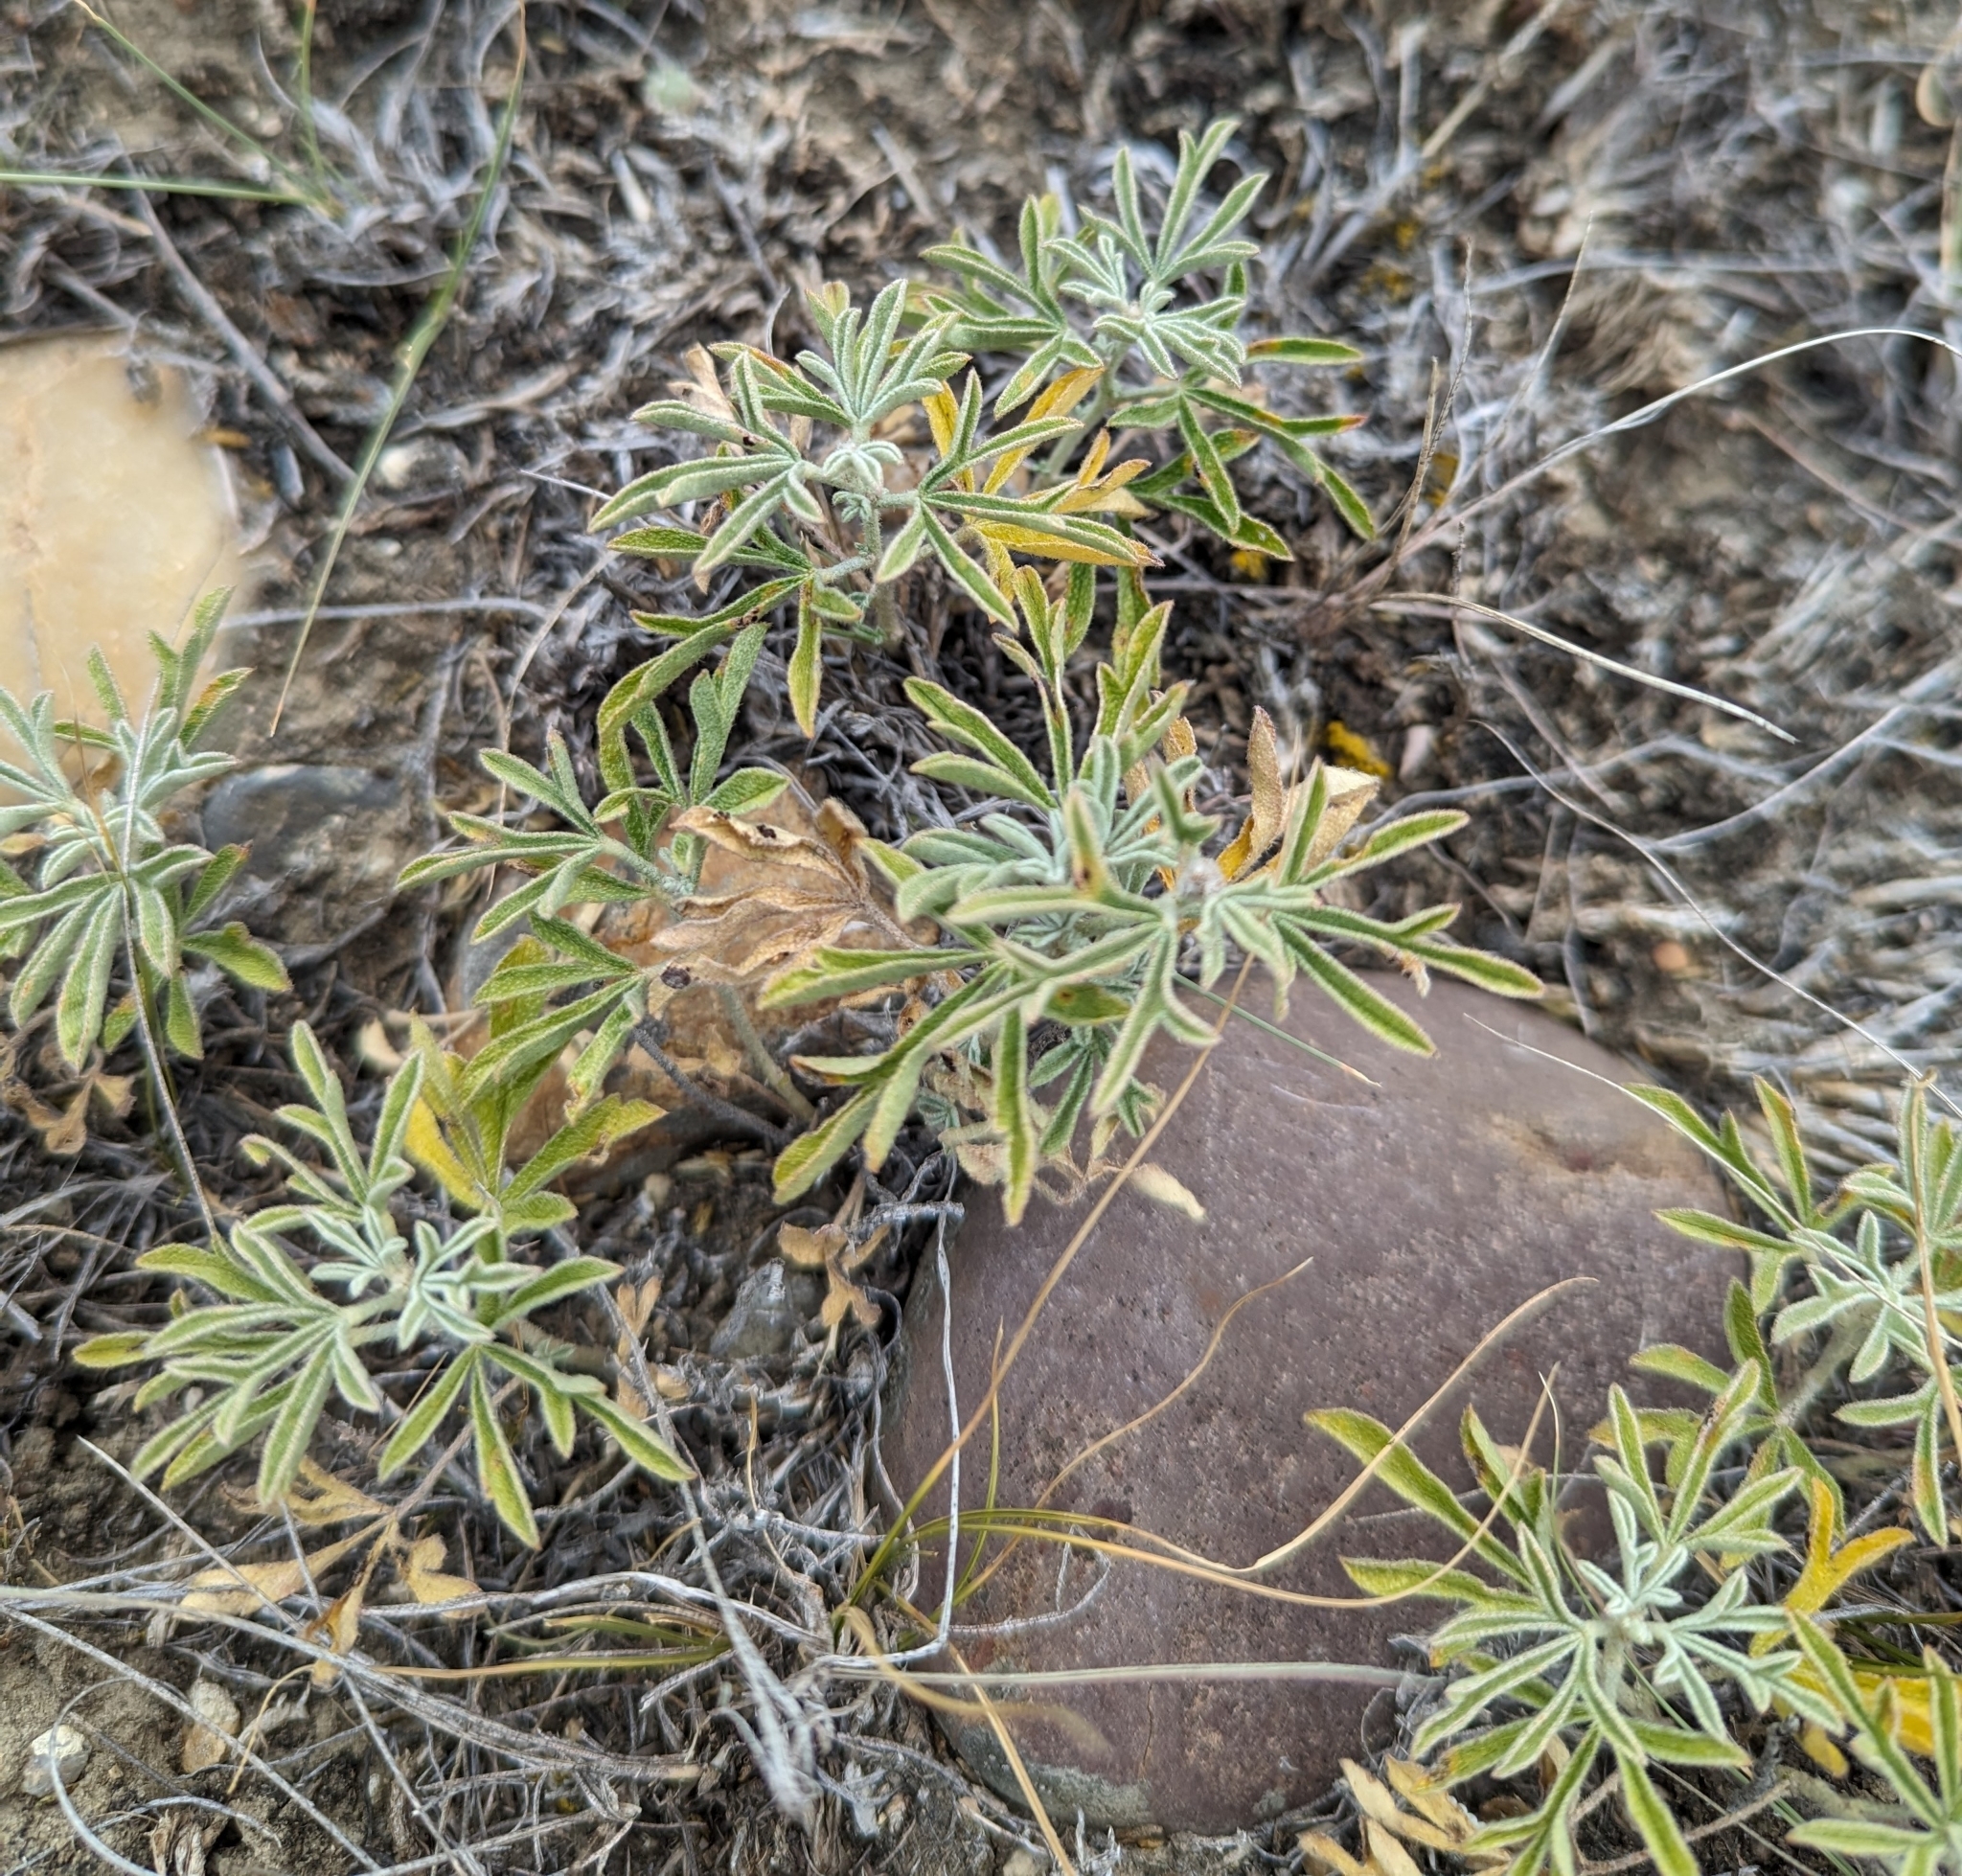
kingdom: Plantae
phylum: Tracheophyta
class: Magnoliopsida
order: Malvales
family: Malvaceae
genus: Sphaeralcea
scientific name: Sphaeralcea coccinea
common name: Moss-rose
